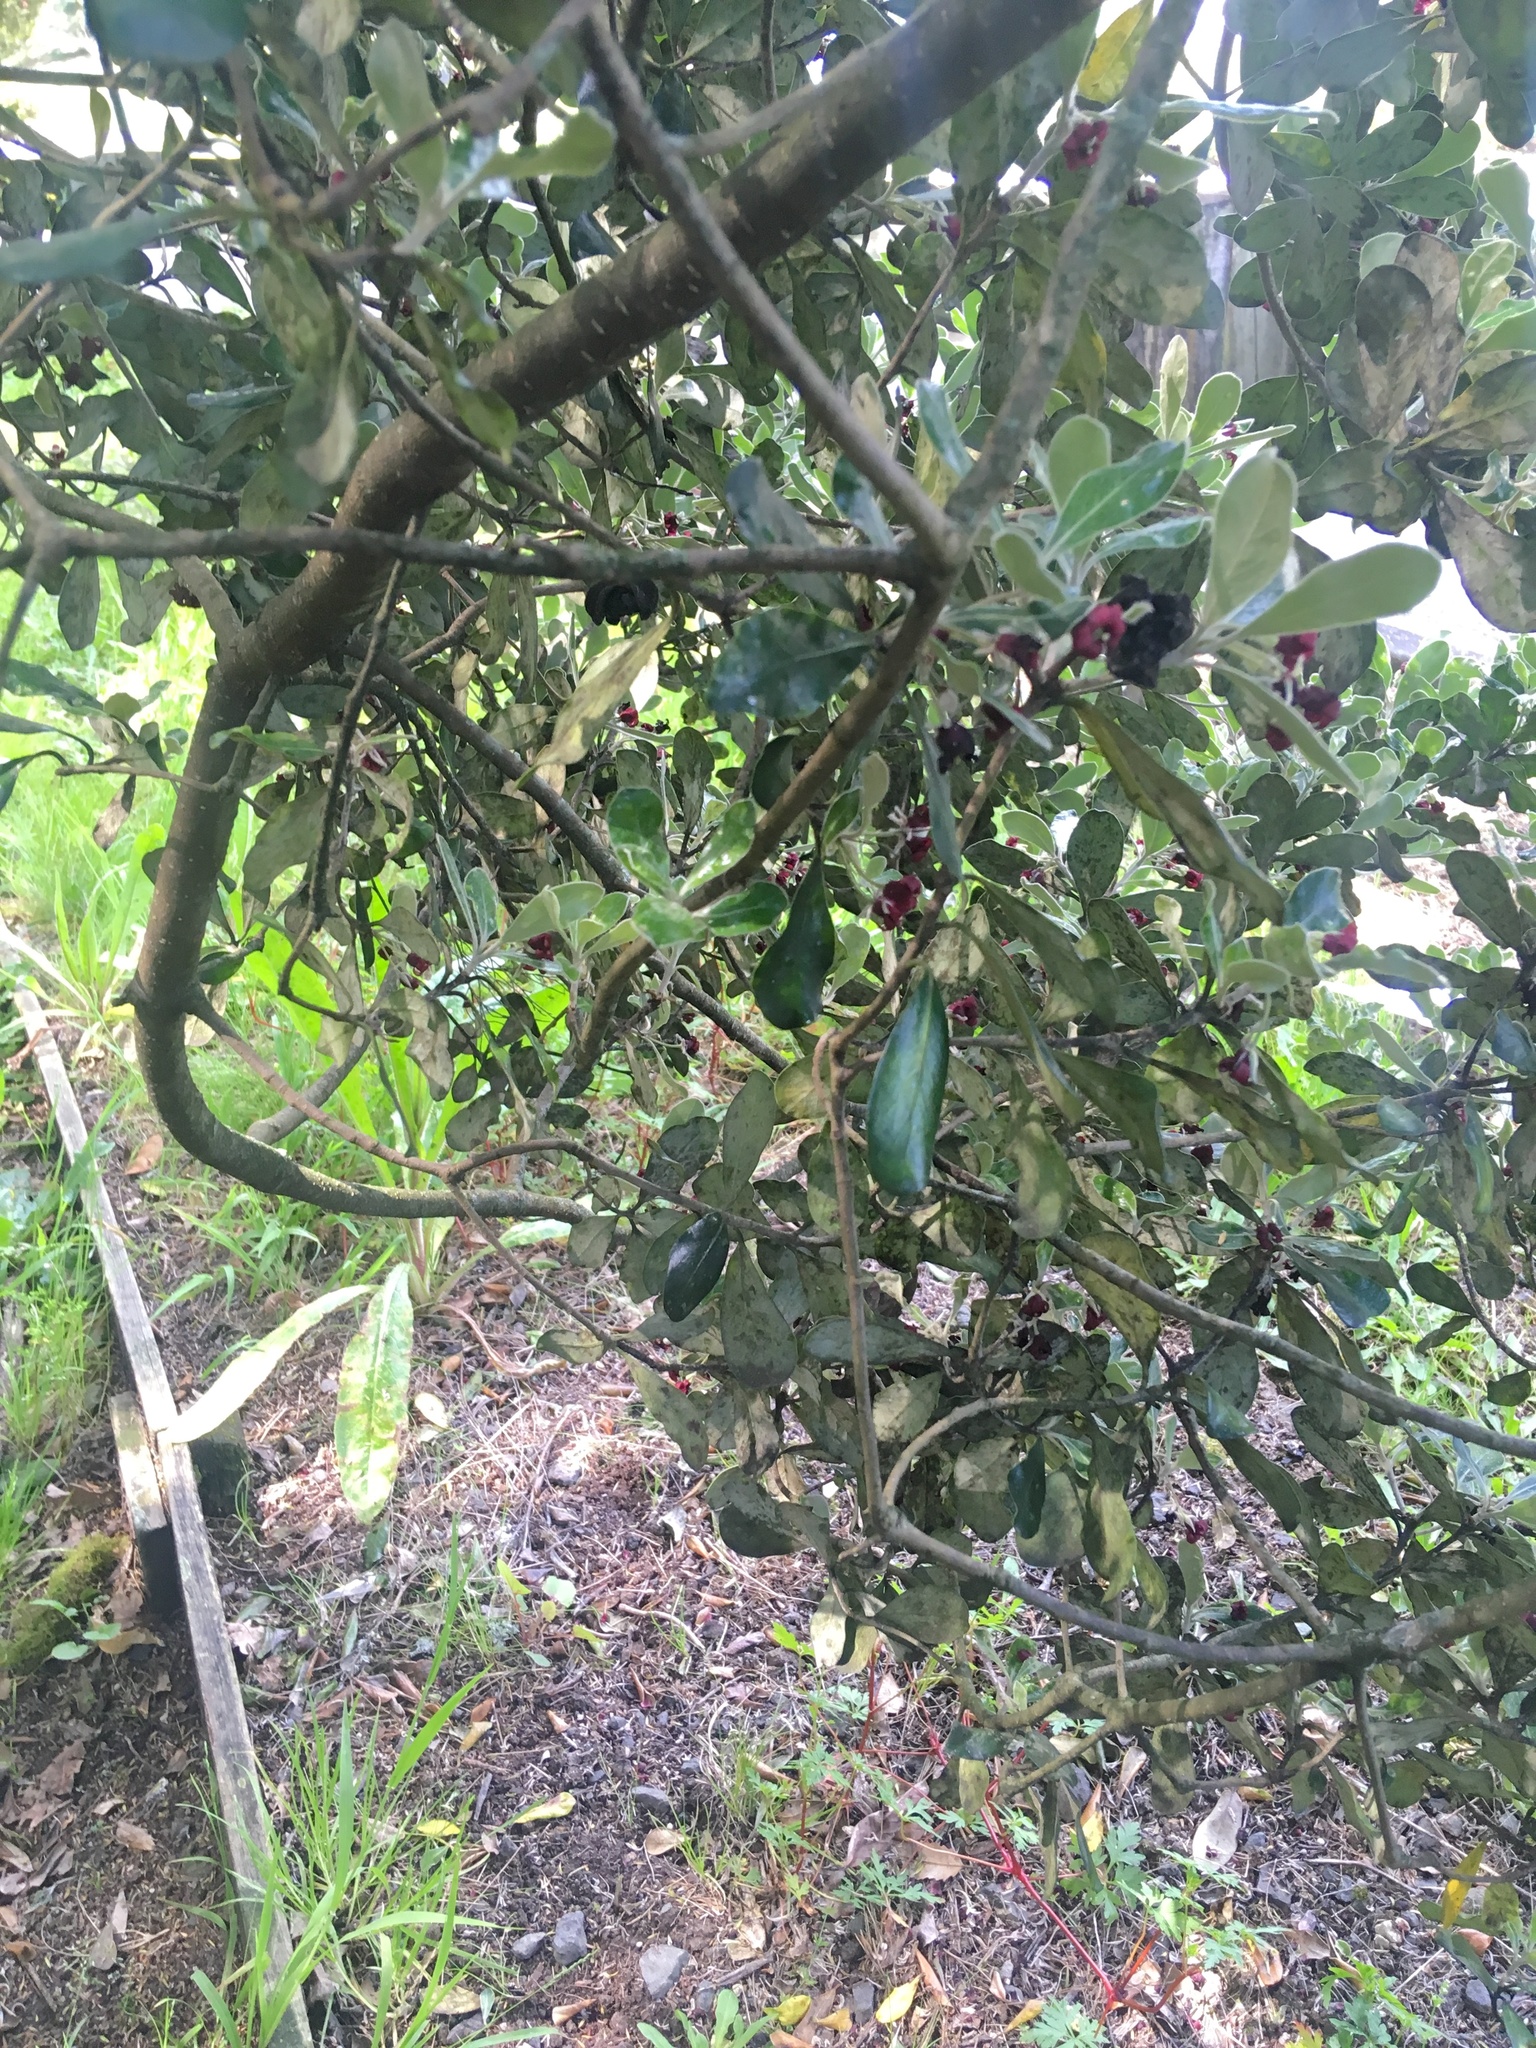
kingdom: Plantae
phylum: Tracheophyta
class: Magnoliopsida
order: Apiales
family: Pittosporaceae
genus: Pittosporum
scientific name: Pittosporum crassifolium
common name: Karo
